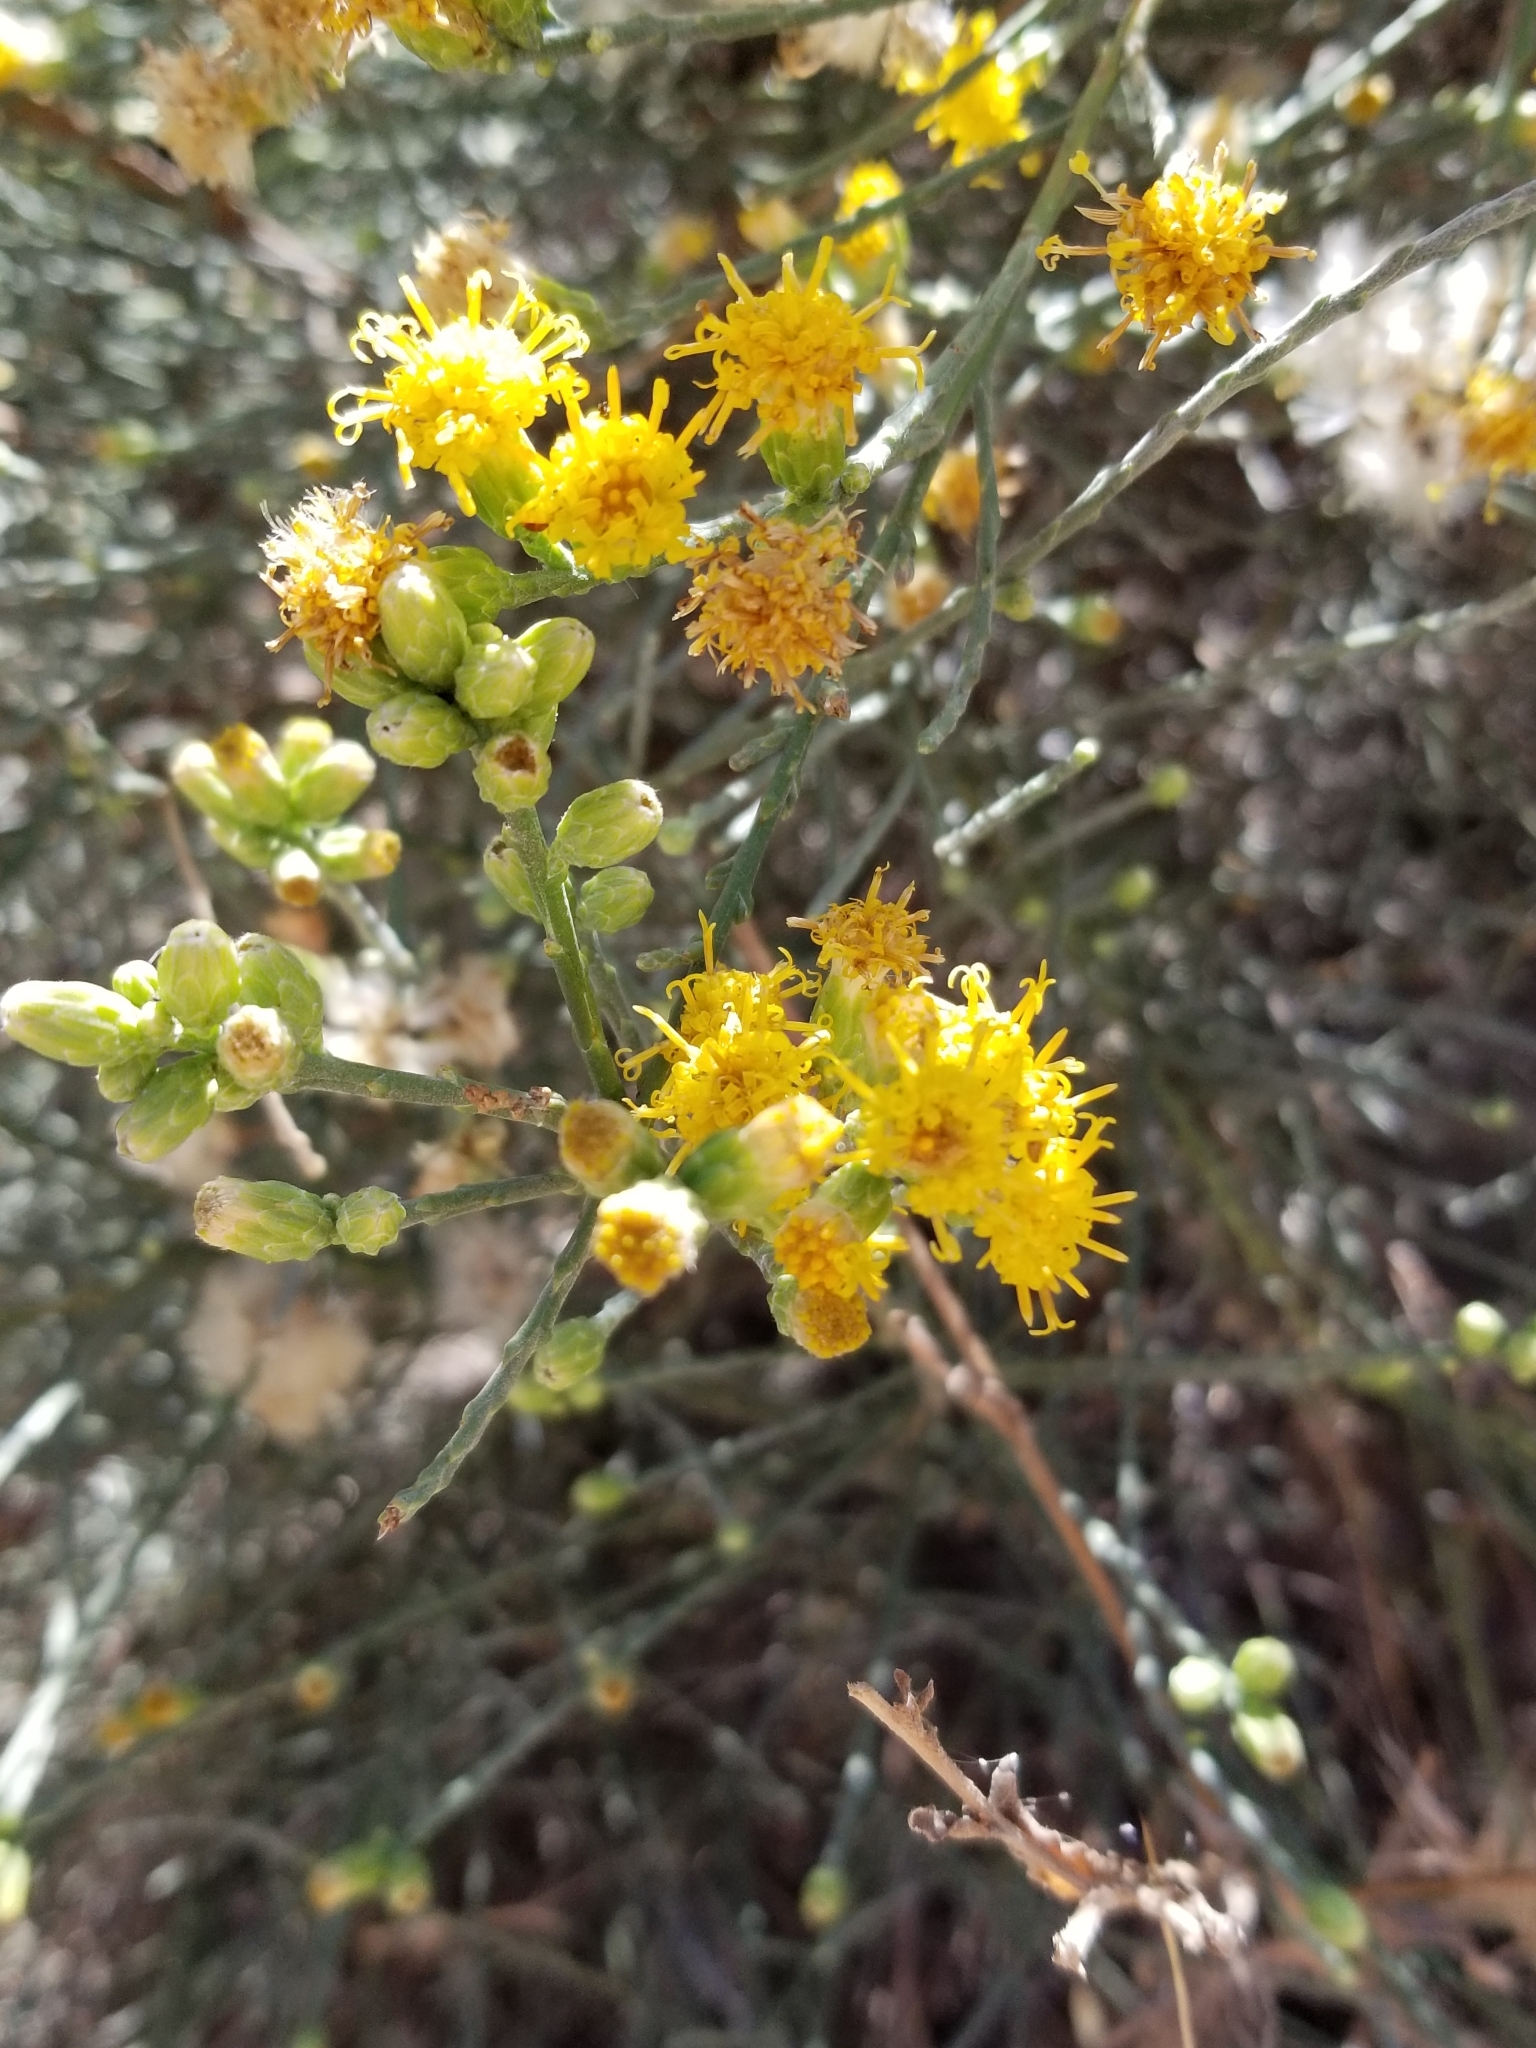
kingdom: Plantae
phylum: Tracheophyta
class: Magnoliopsida
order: Asterales
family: Asteraceae
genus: Lepidospartum
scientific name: Lepidospartum squamatum
